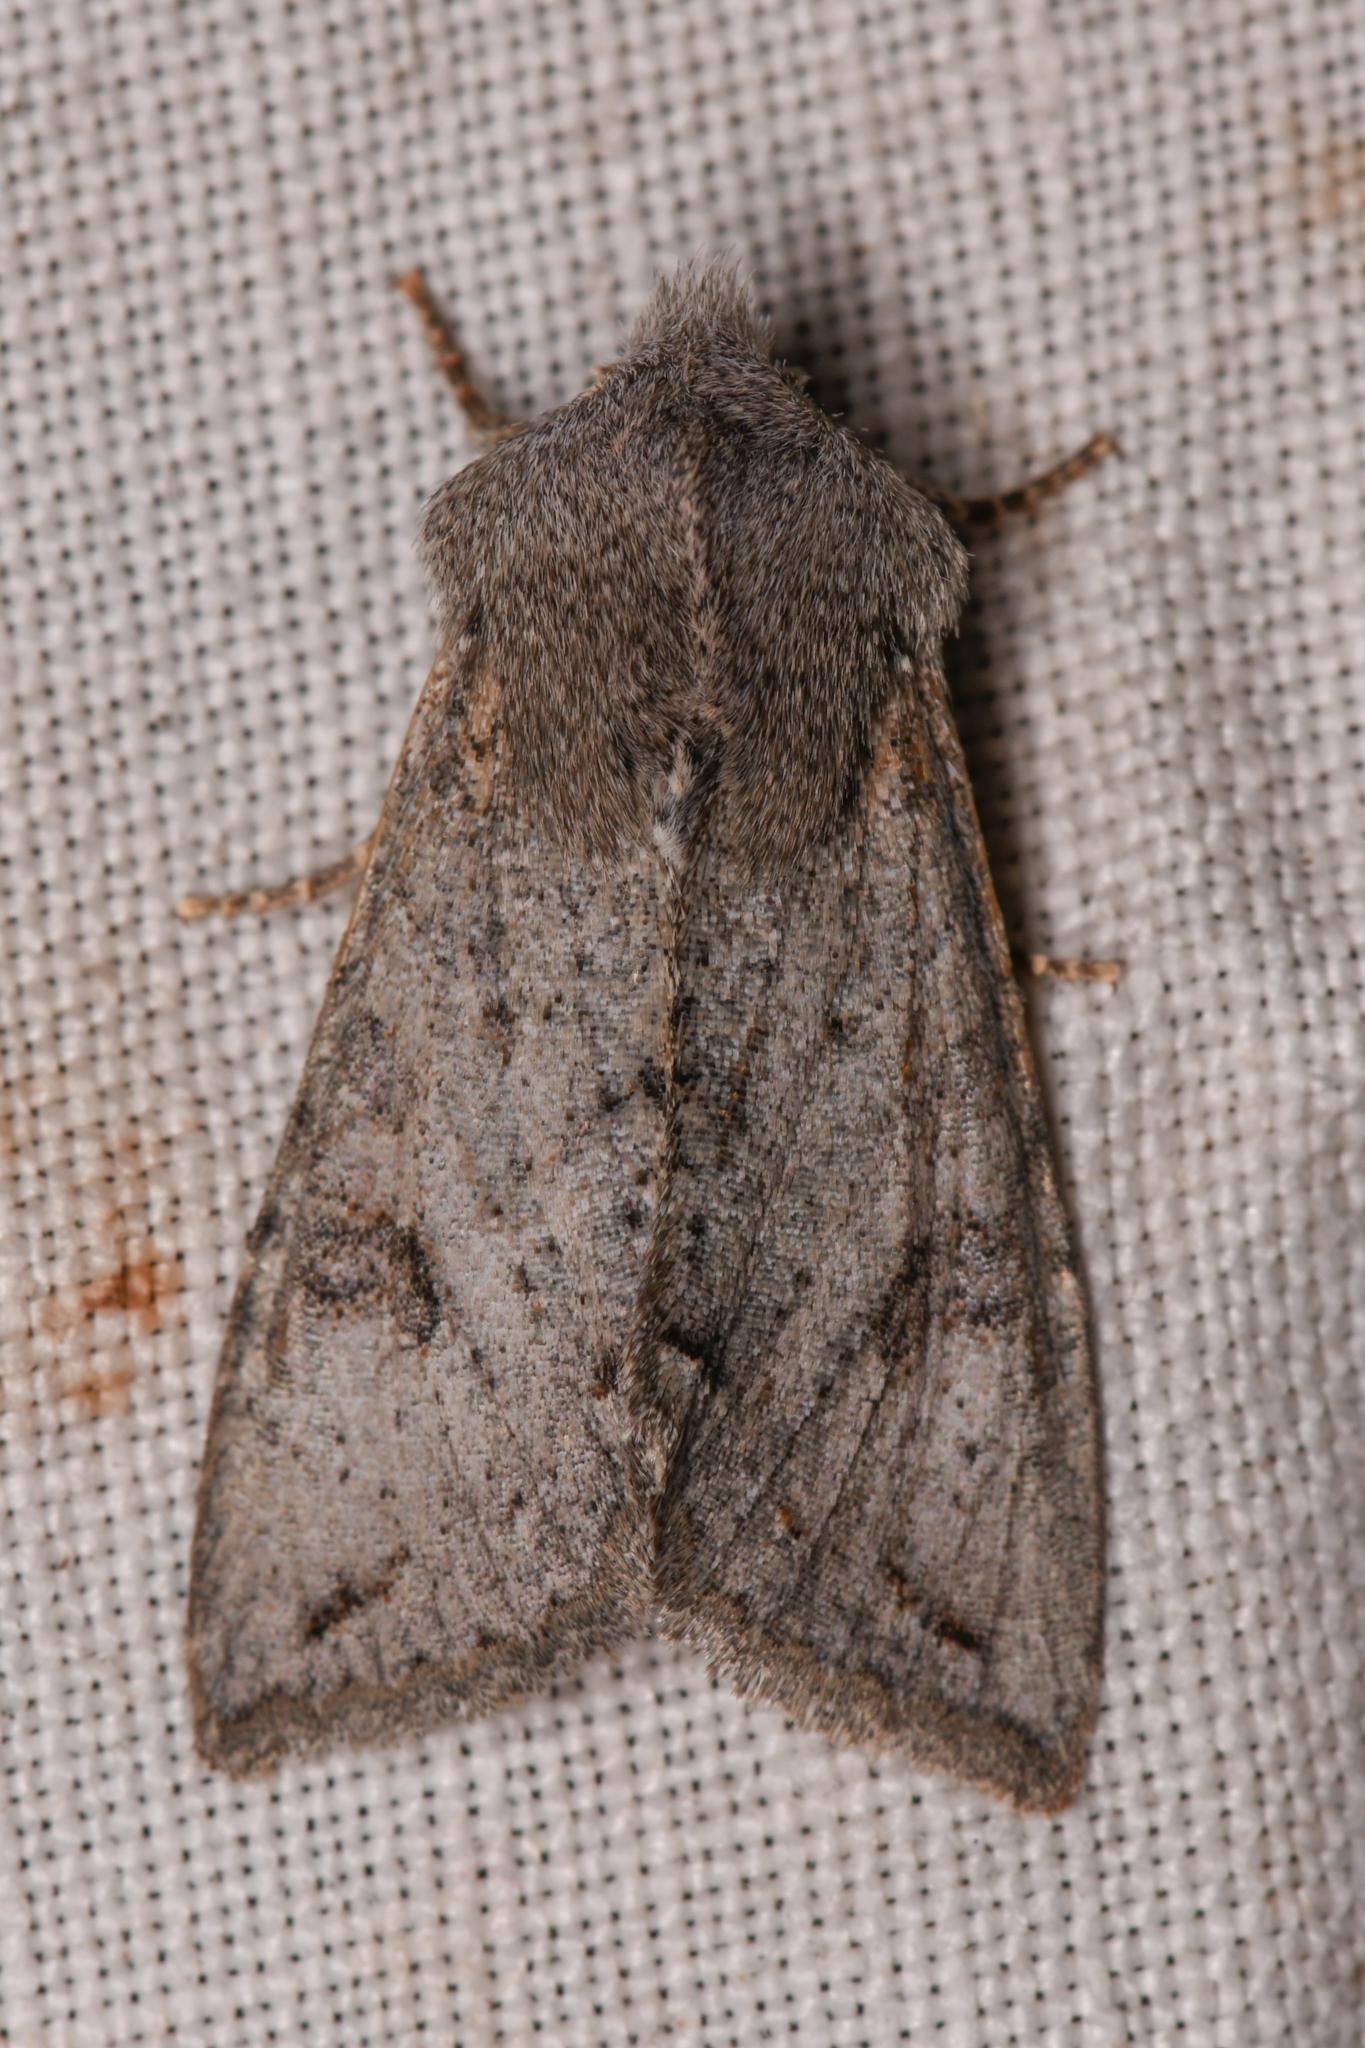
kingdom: Animalia
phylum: Arthropoda
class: Insecta
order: Lepidoptera
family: Noctuidae
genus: Orthosia
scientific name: Orthosia erythrolita
